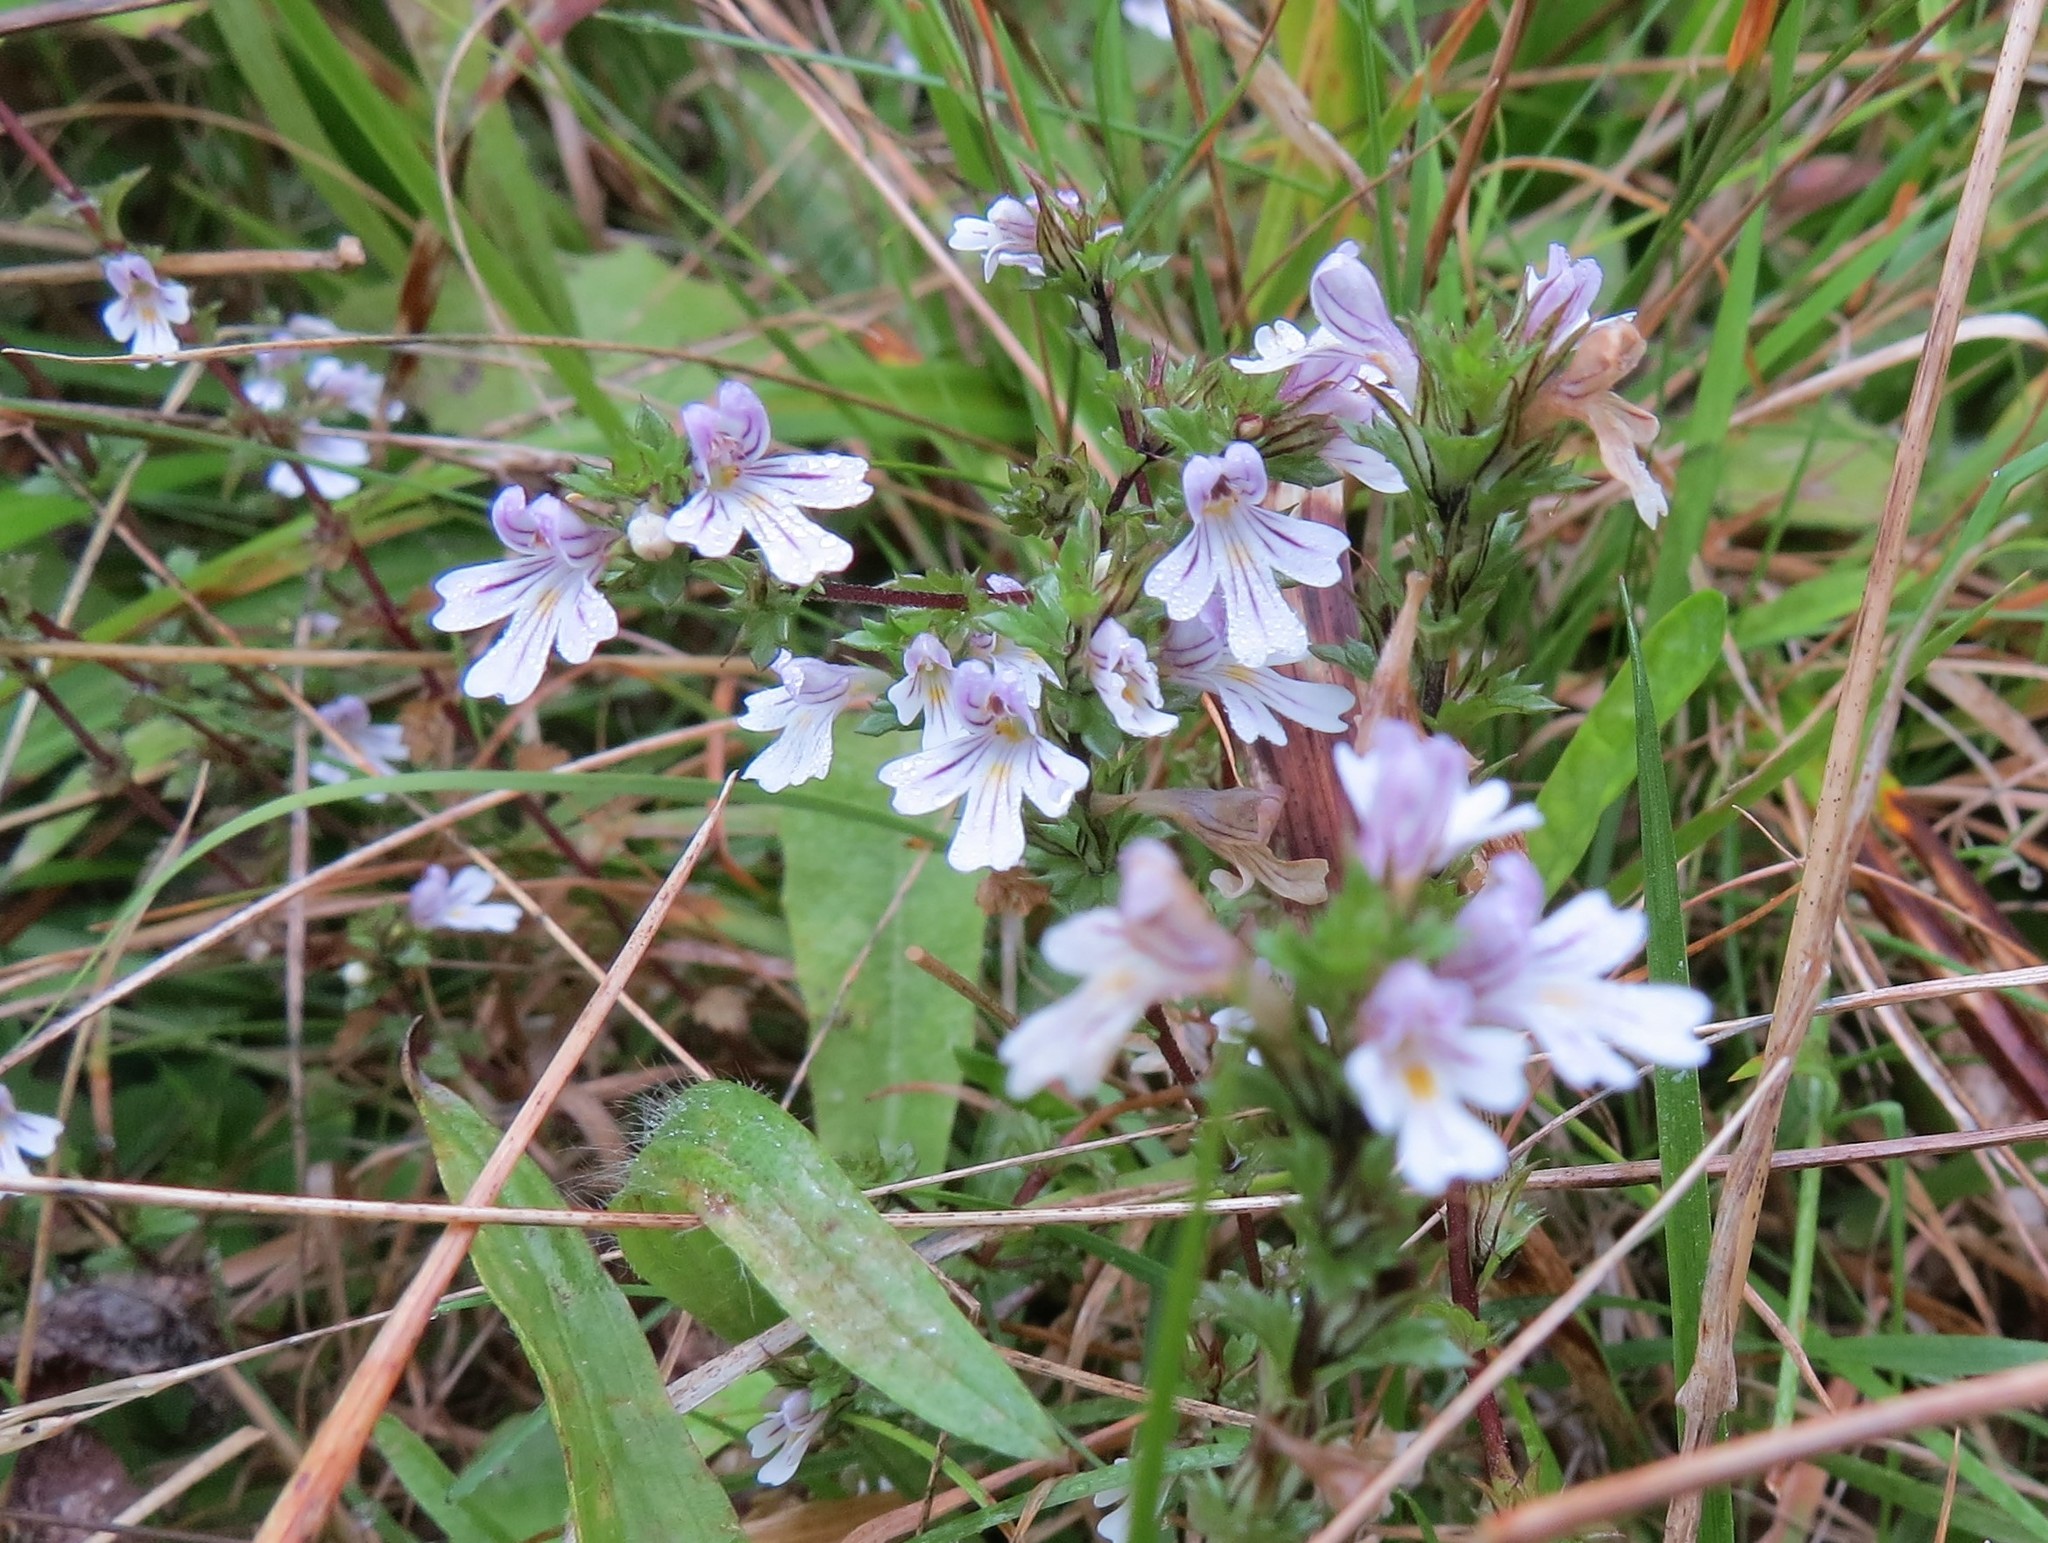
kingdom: Plantae
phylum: Tracheophyta
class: Magnoliopsida
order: Lamiales
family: Orobanchaceae
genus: Euphrasia
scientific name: Euphrasia nemorosa
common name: Common eyebright
